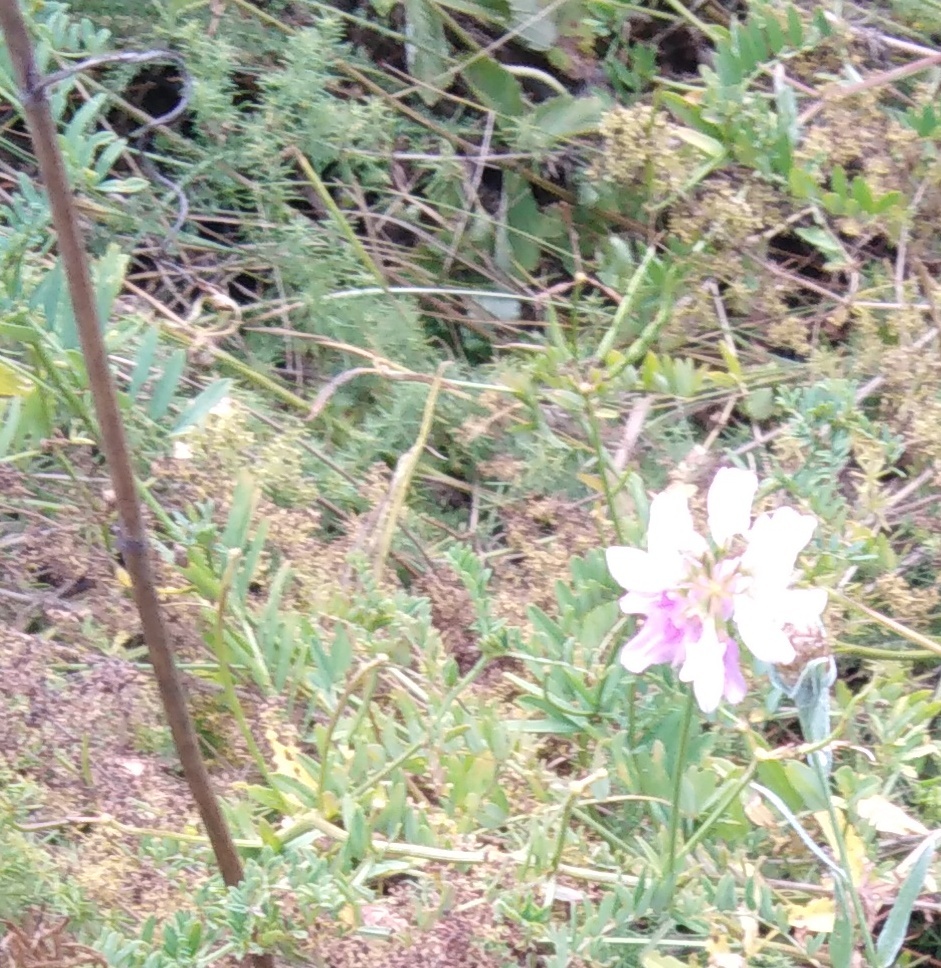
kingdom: Plantae
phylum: Tracheophyta
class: Magnoliopsida
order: Fabales
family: Fabaceae
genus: Coronilla
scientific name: Coronilla varia
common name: Crownvetch
